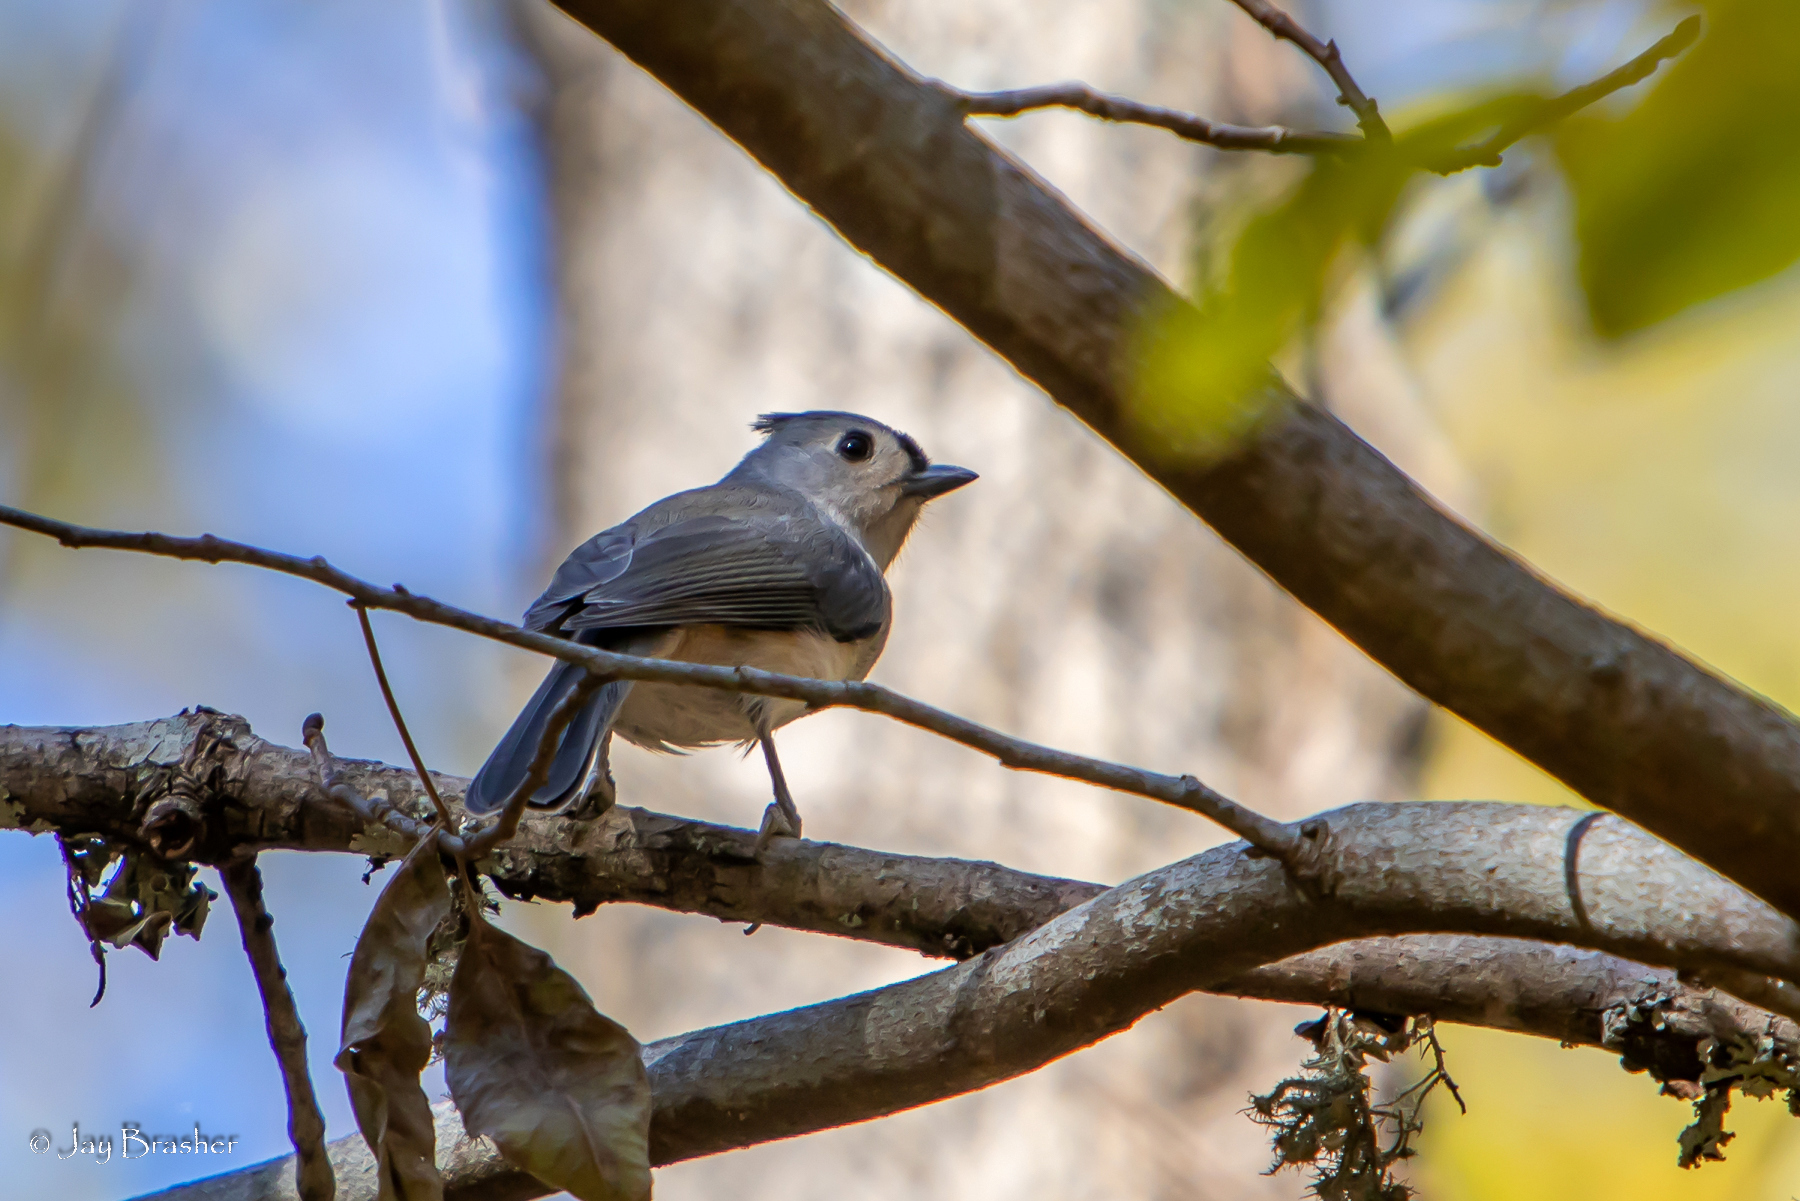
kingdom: Animalia
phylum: Chordata
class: Aves
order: Passeriformes
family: Paridae
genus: Baeolophus
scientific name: Baeolophus bicolor
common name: Tufted titmouse
